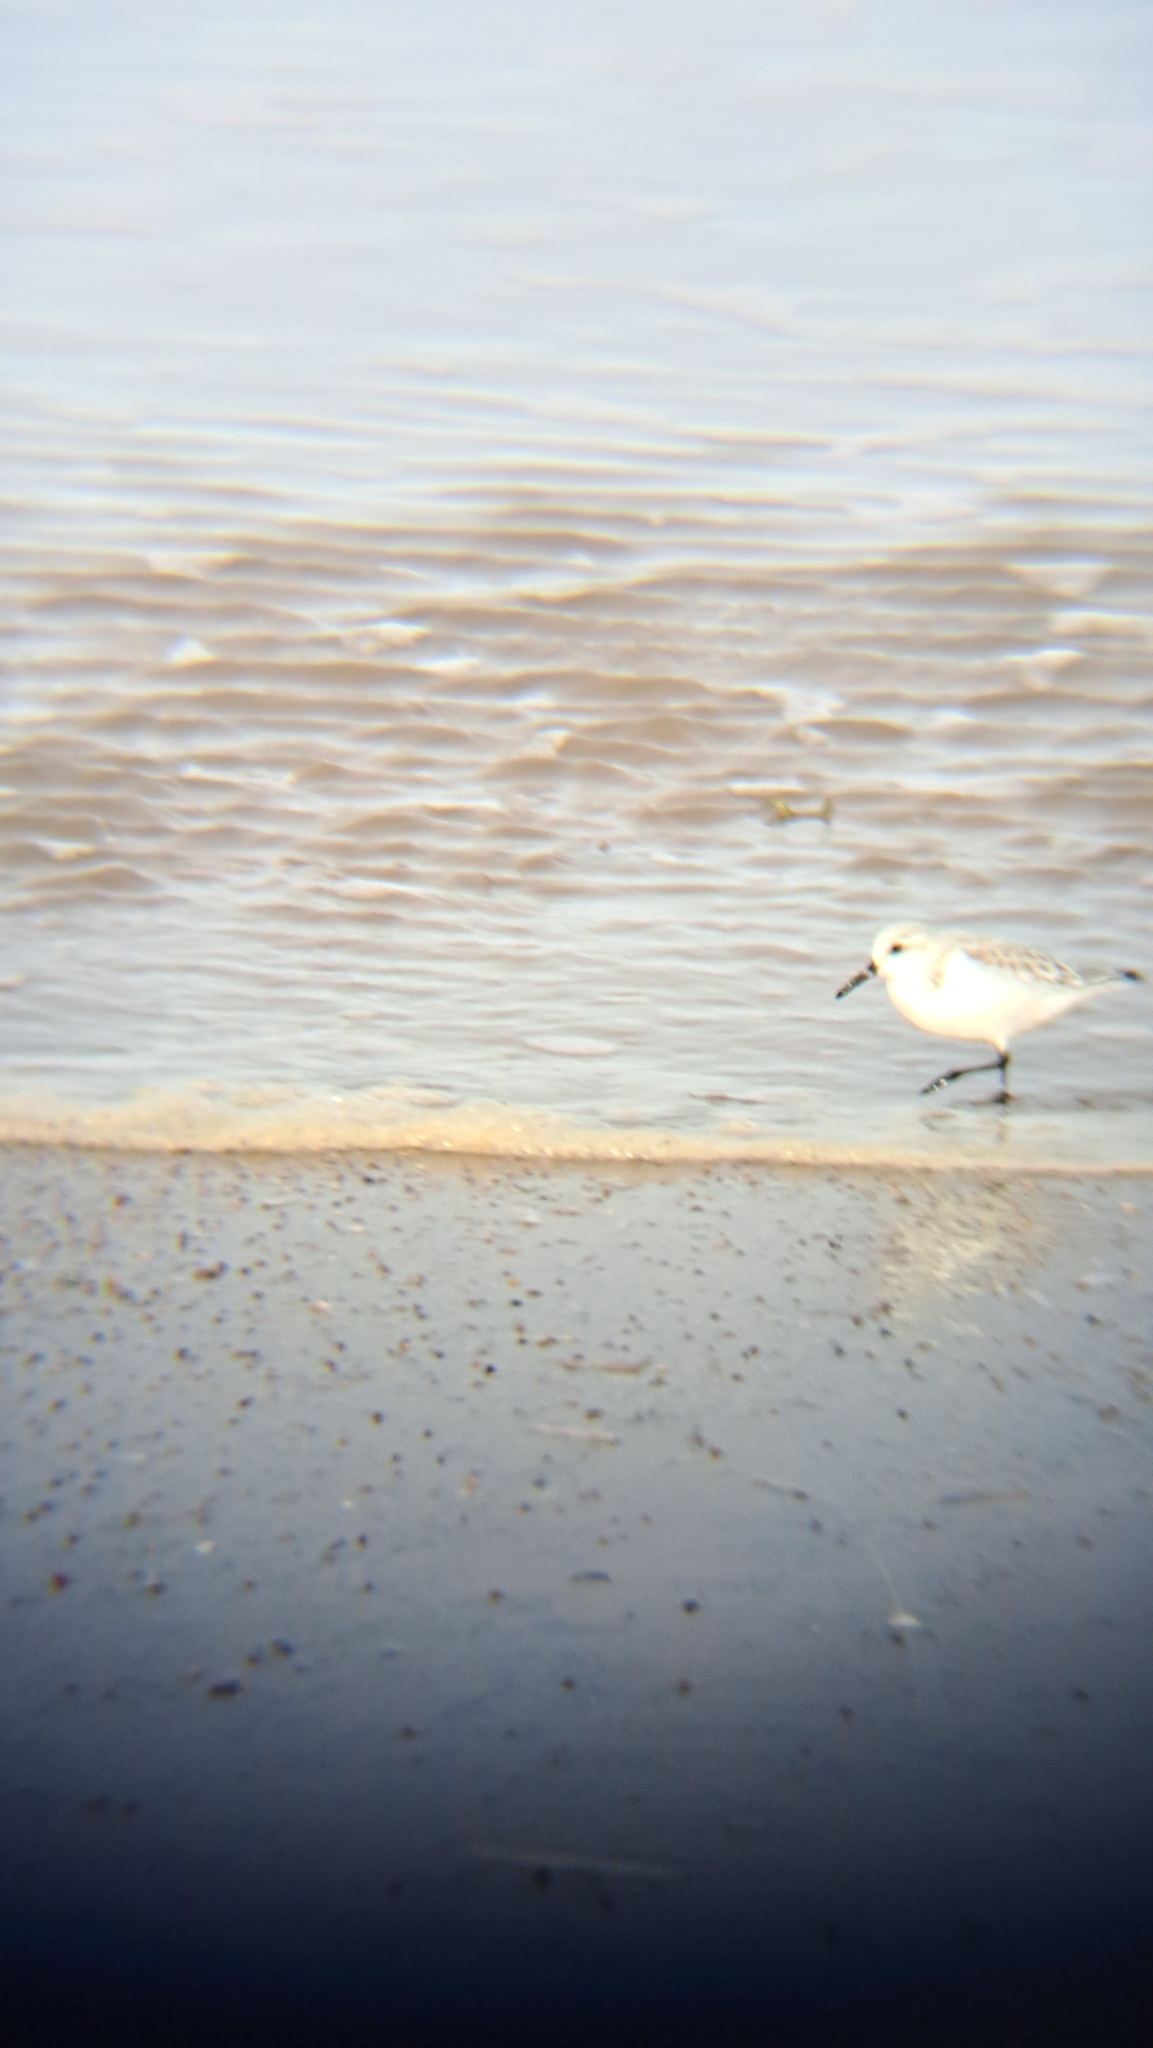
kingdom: Animalia
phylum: Chordata
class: Aves
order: Charadriiformes
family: Scolopacidae
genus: Calidris
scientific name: Calidris alba
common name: Sanderling
